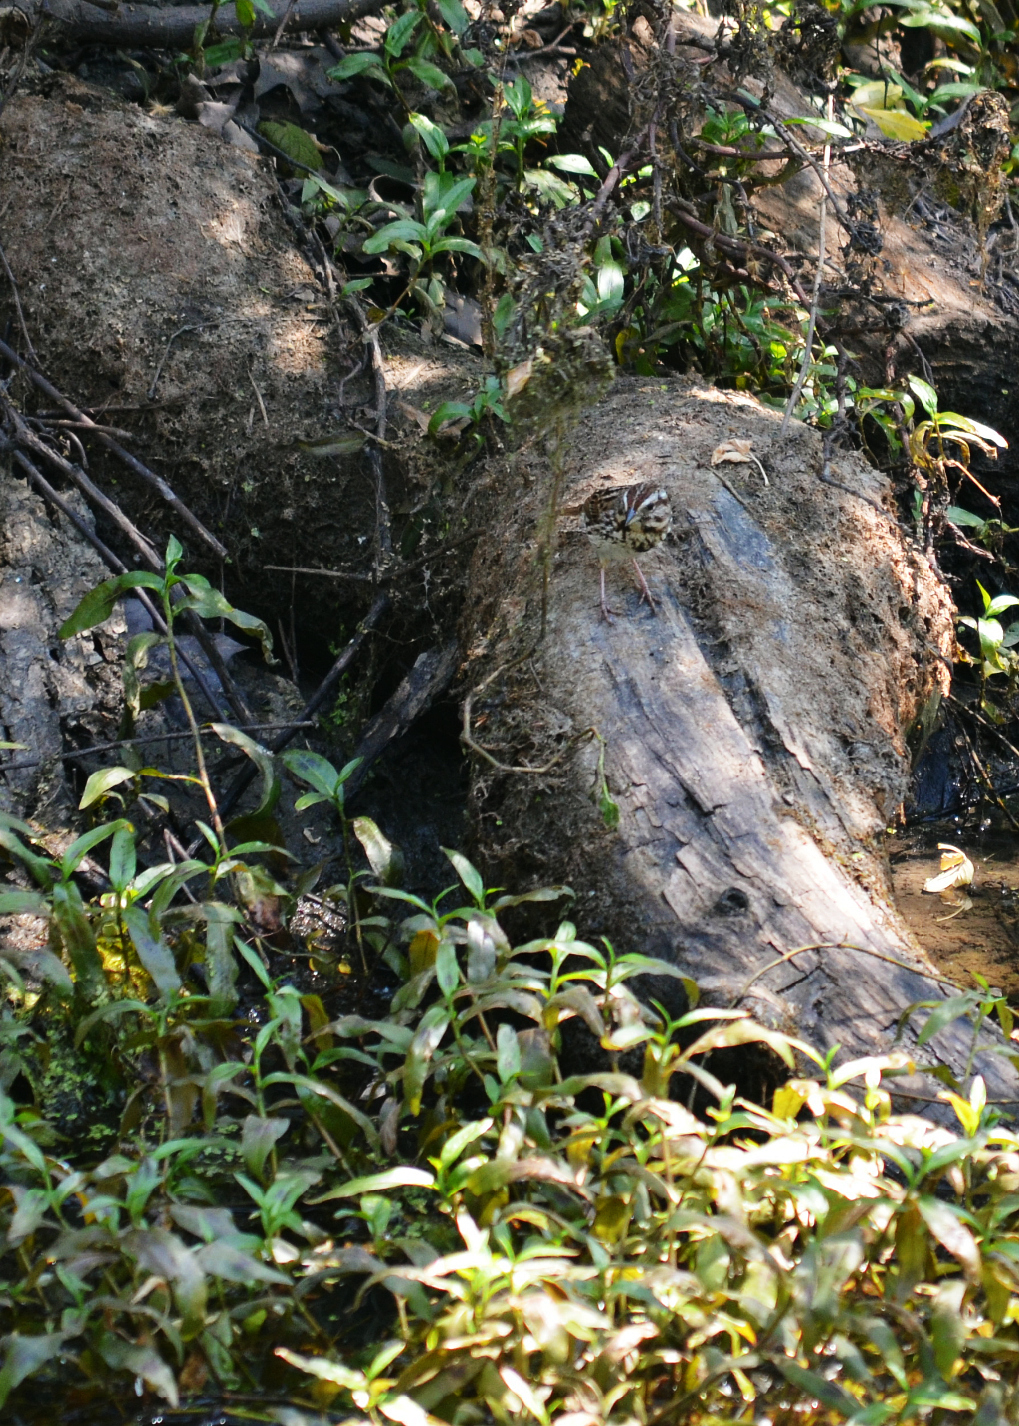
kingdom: Animalia
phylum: Chordata
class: Aves
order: Passeriformes
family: Passerellidae
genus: Melospiza
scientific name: Melospiza melodia
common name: Song sparrow
